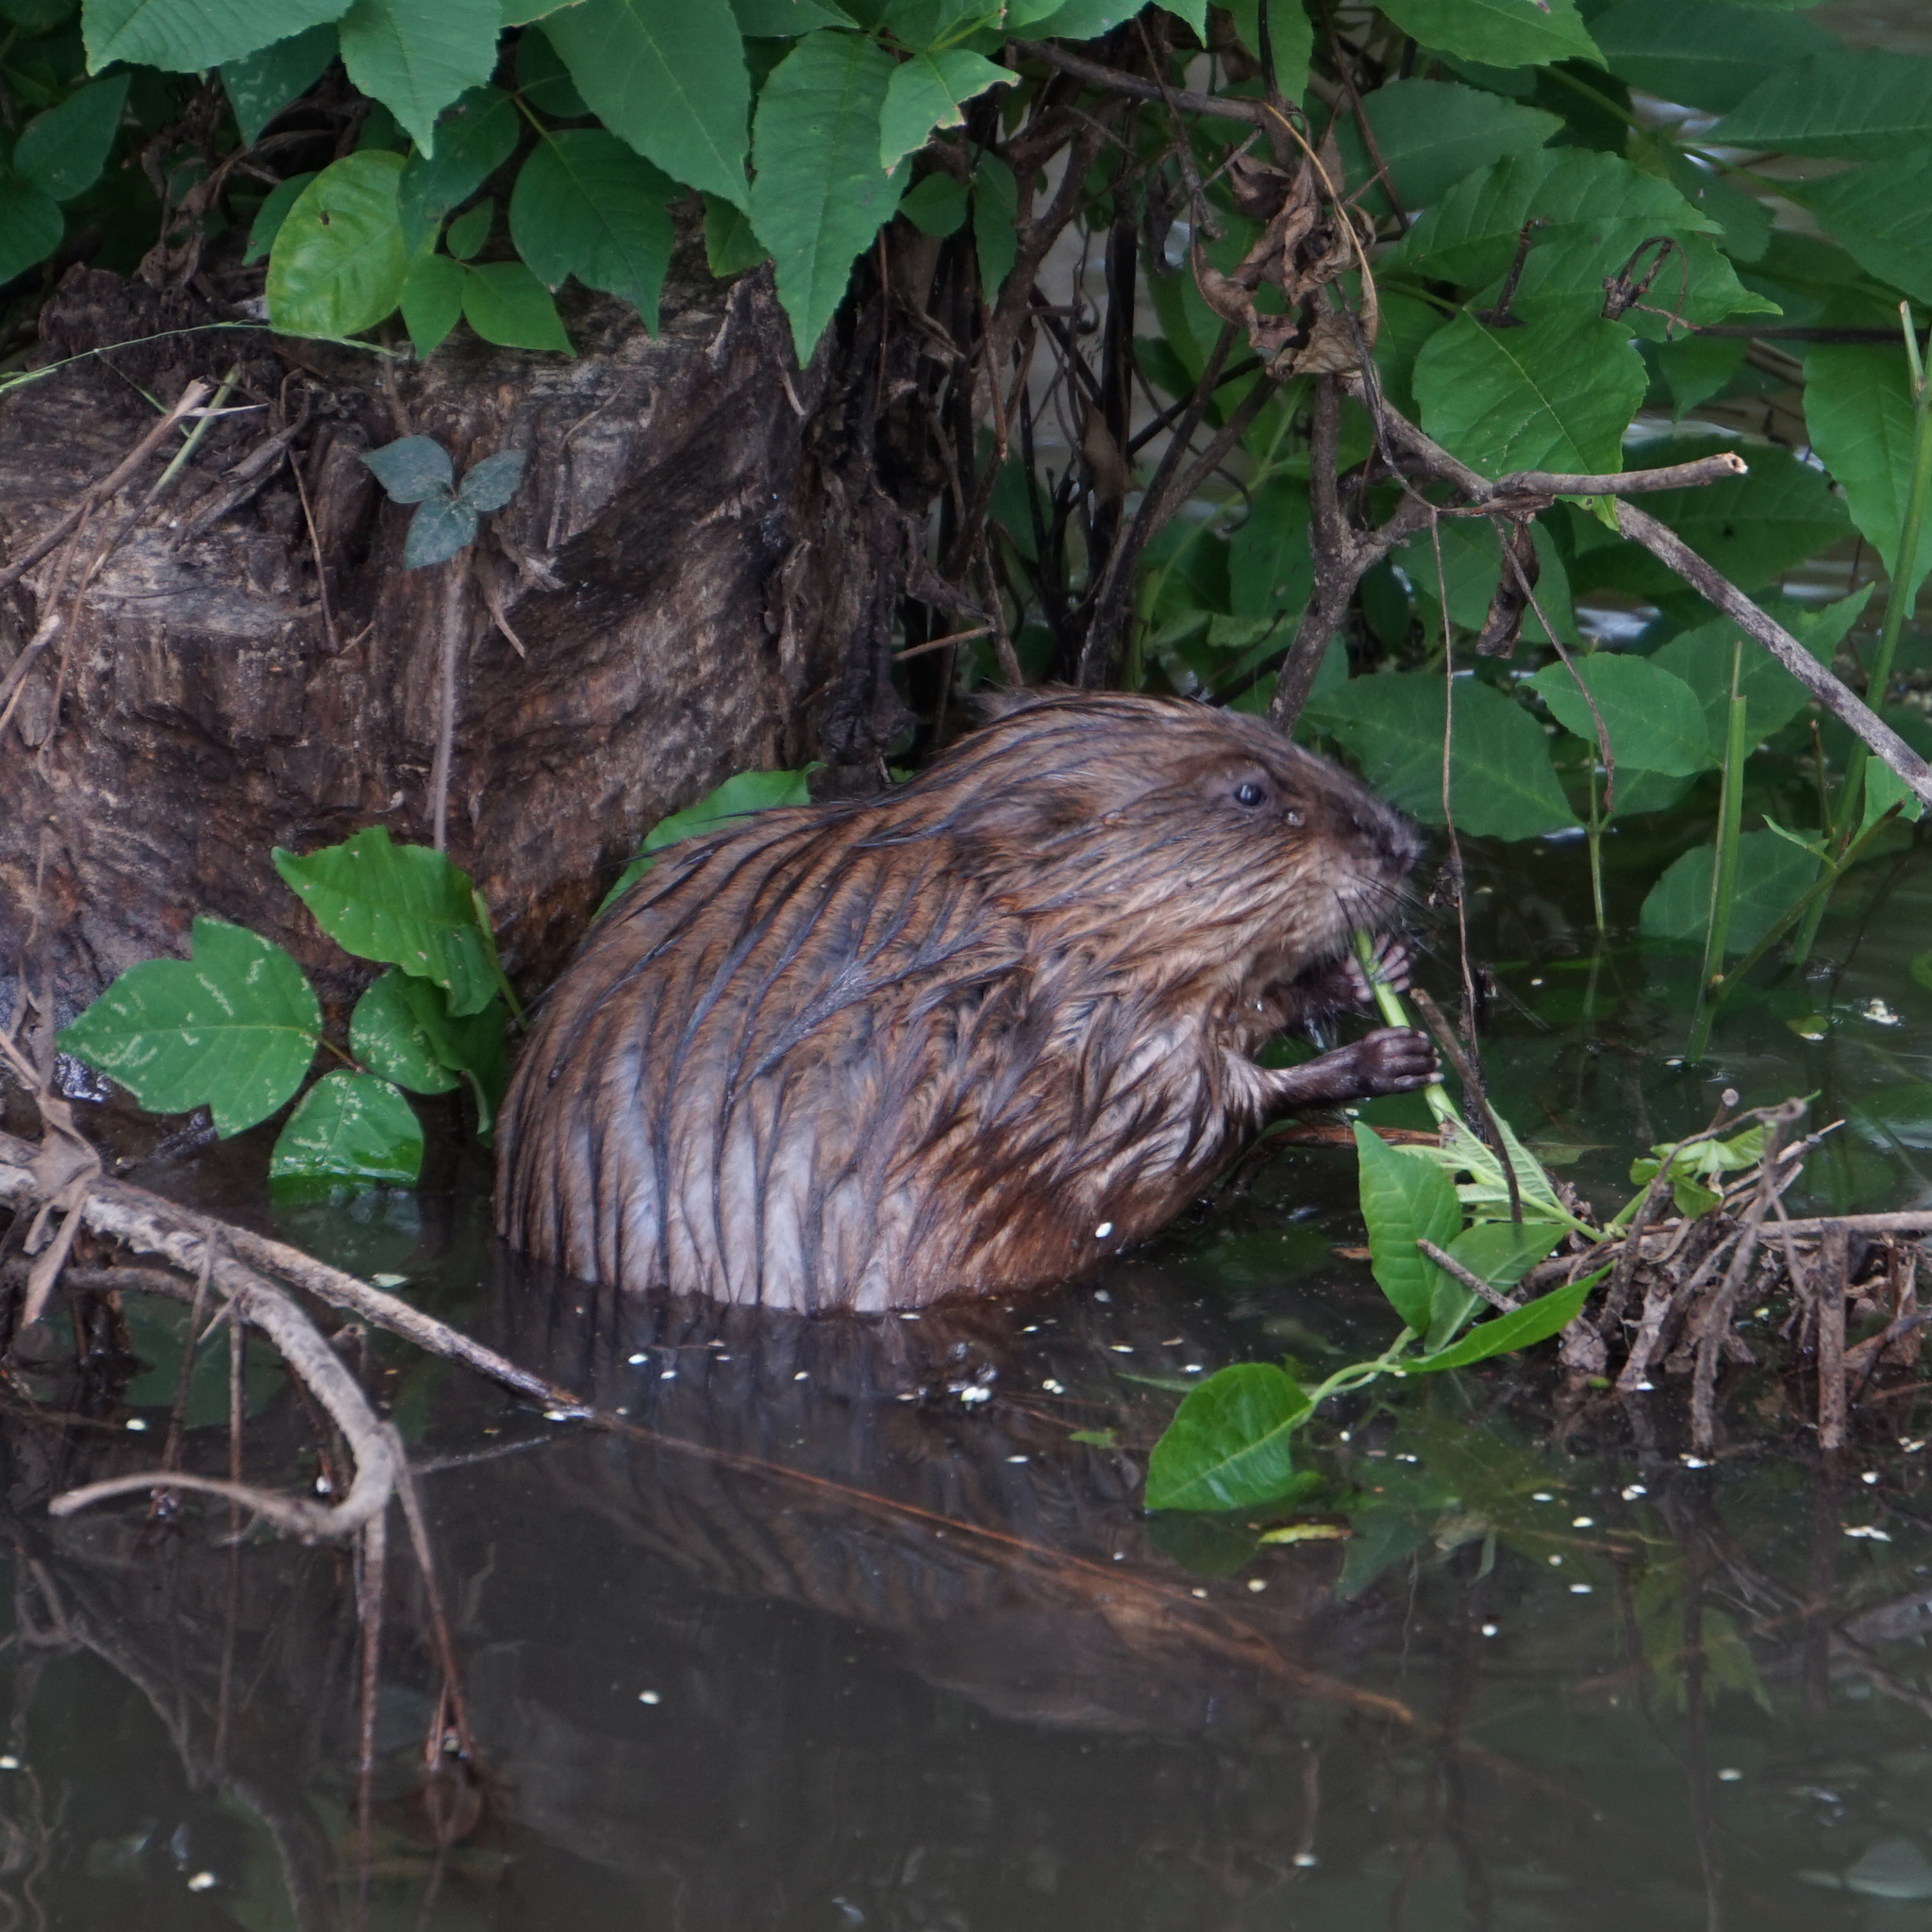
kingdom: Animalia
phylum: Chordata
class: Mammalia
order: Rodentia
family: Cricetidae
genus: Ondatra
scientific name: Ondatra zibethicus
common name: Muskrat
